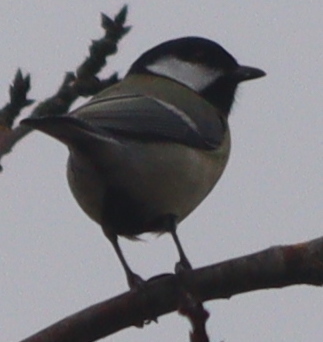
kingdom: Animalia
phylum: Chordata
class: Aves
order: Passeriformes
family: Paridae
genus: Parus
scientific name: Parus major
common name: Great tit
